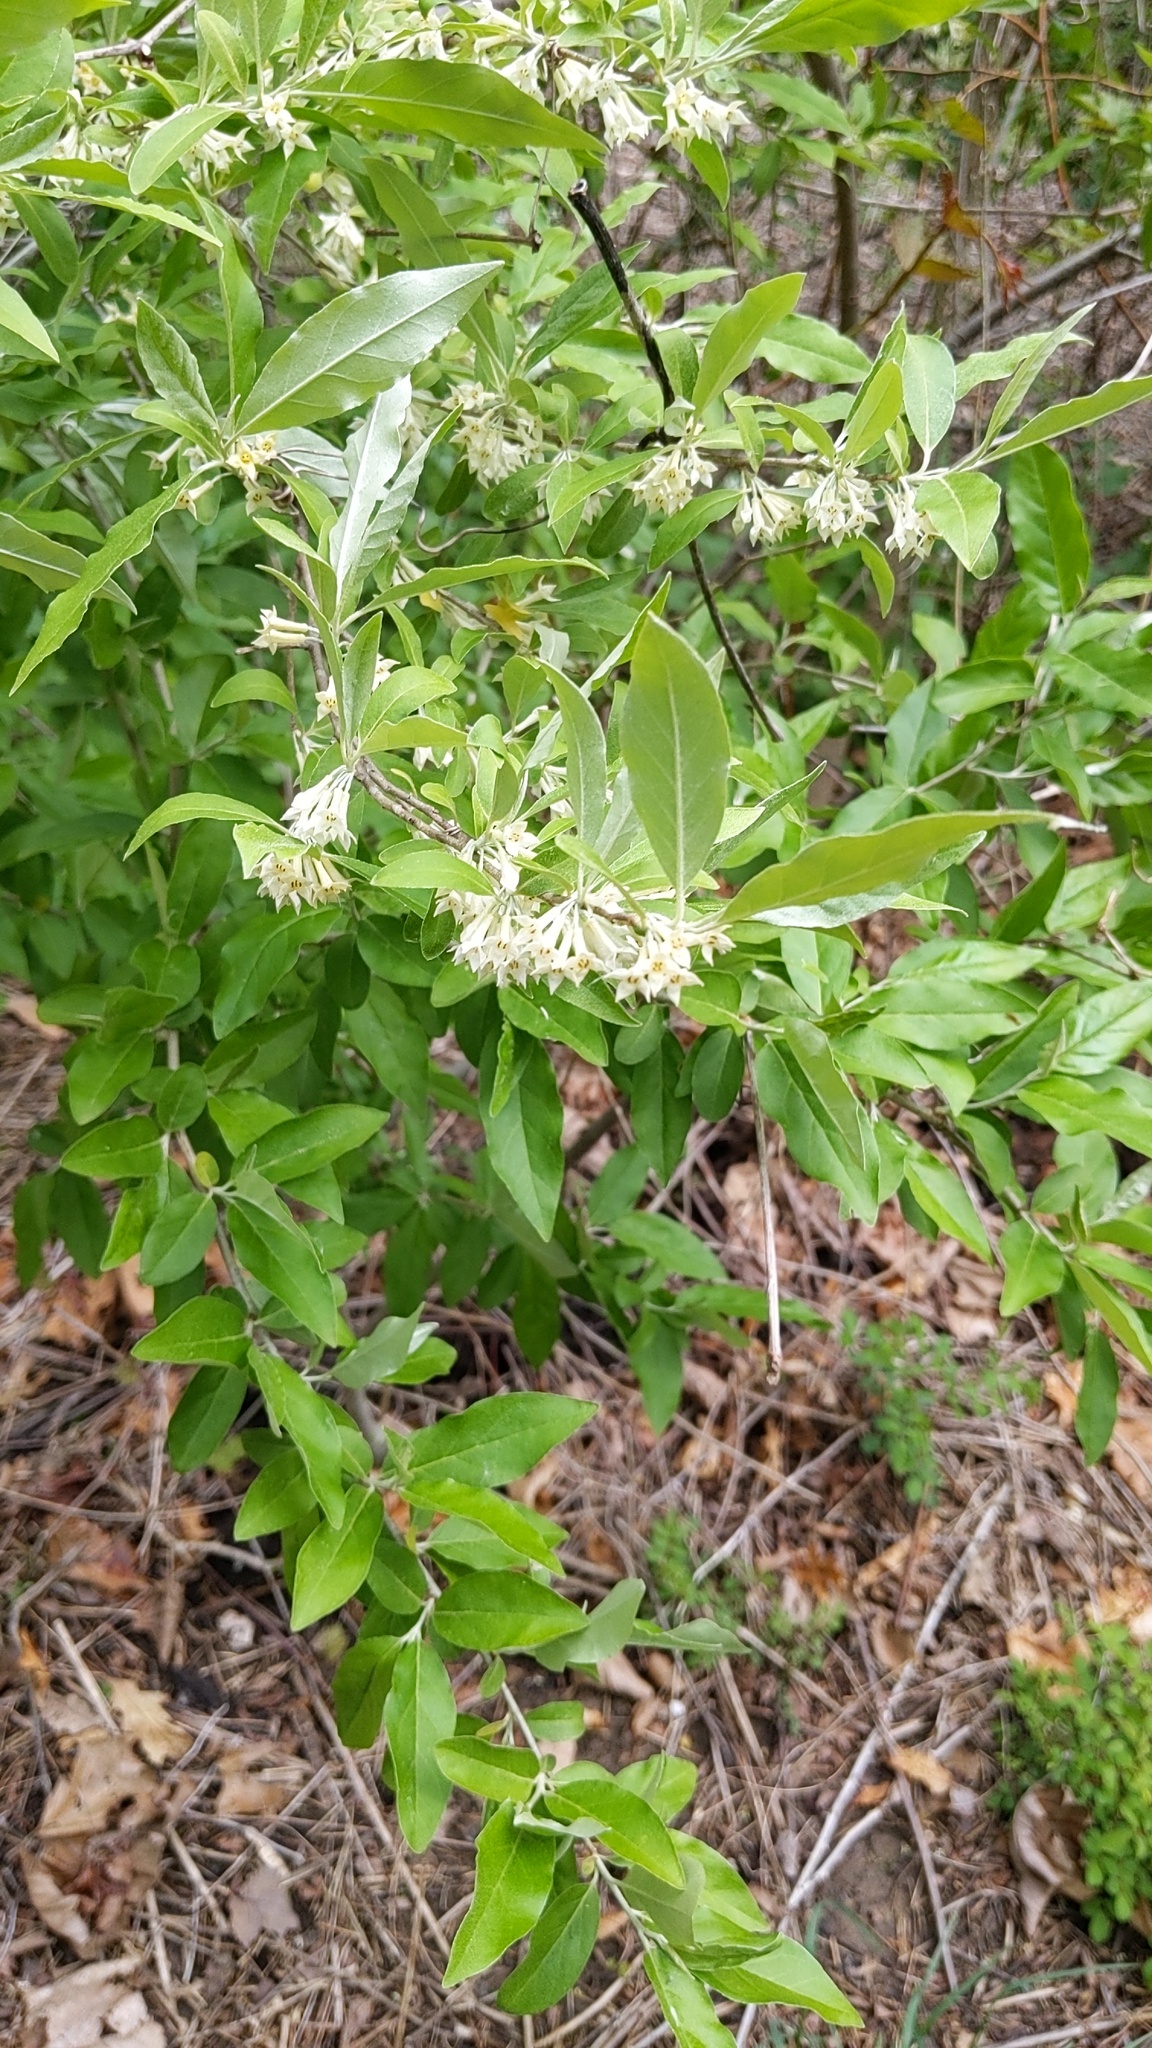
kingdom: Plantae
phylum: Tracheophyta
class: Magnoliopsida
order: Rosales
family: Elaeagnaceae
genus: Elaeagnus
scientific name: Elaeagnus umbellata
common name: Autumn olive
